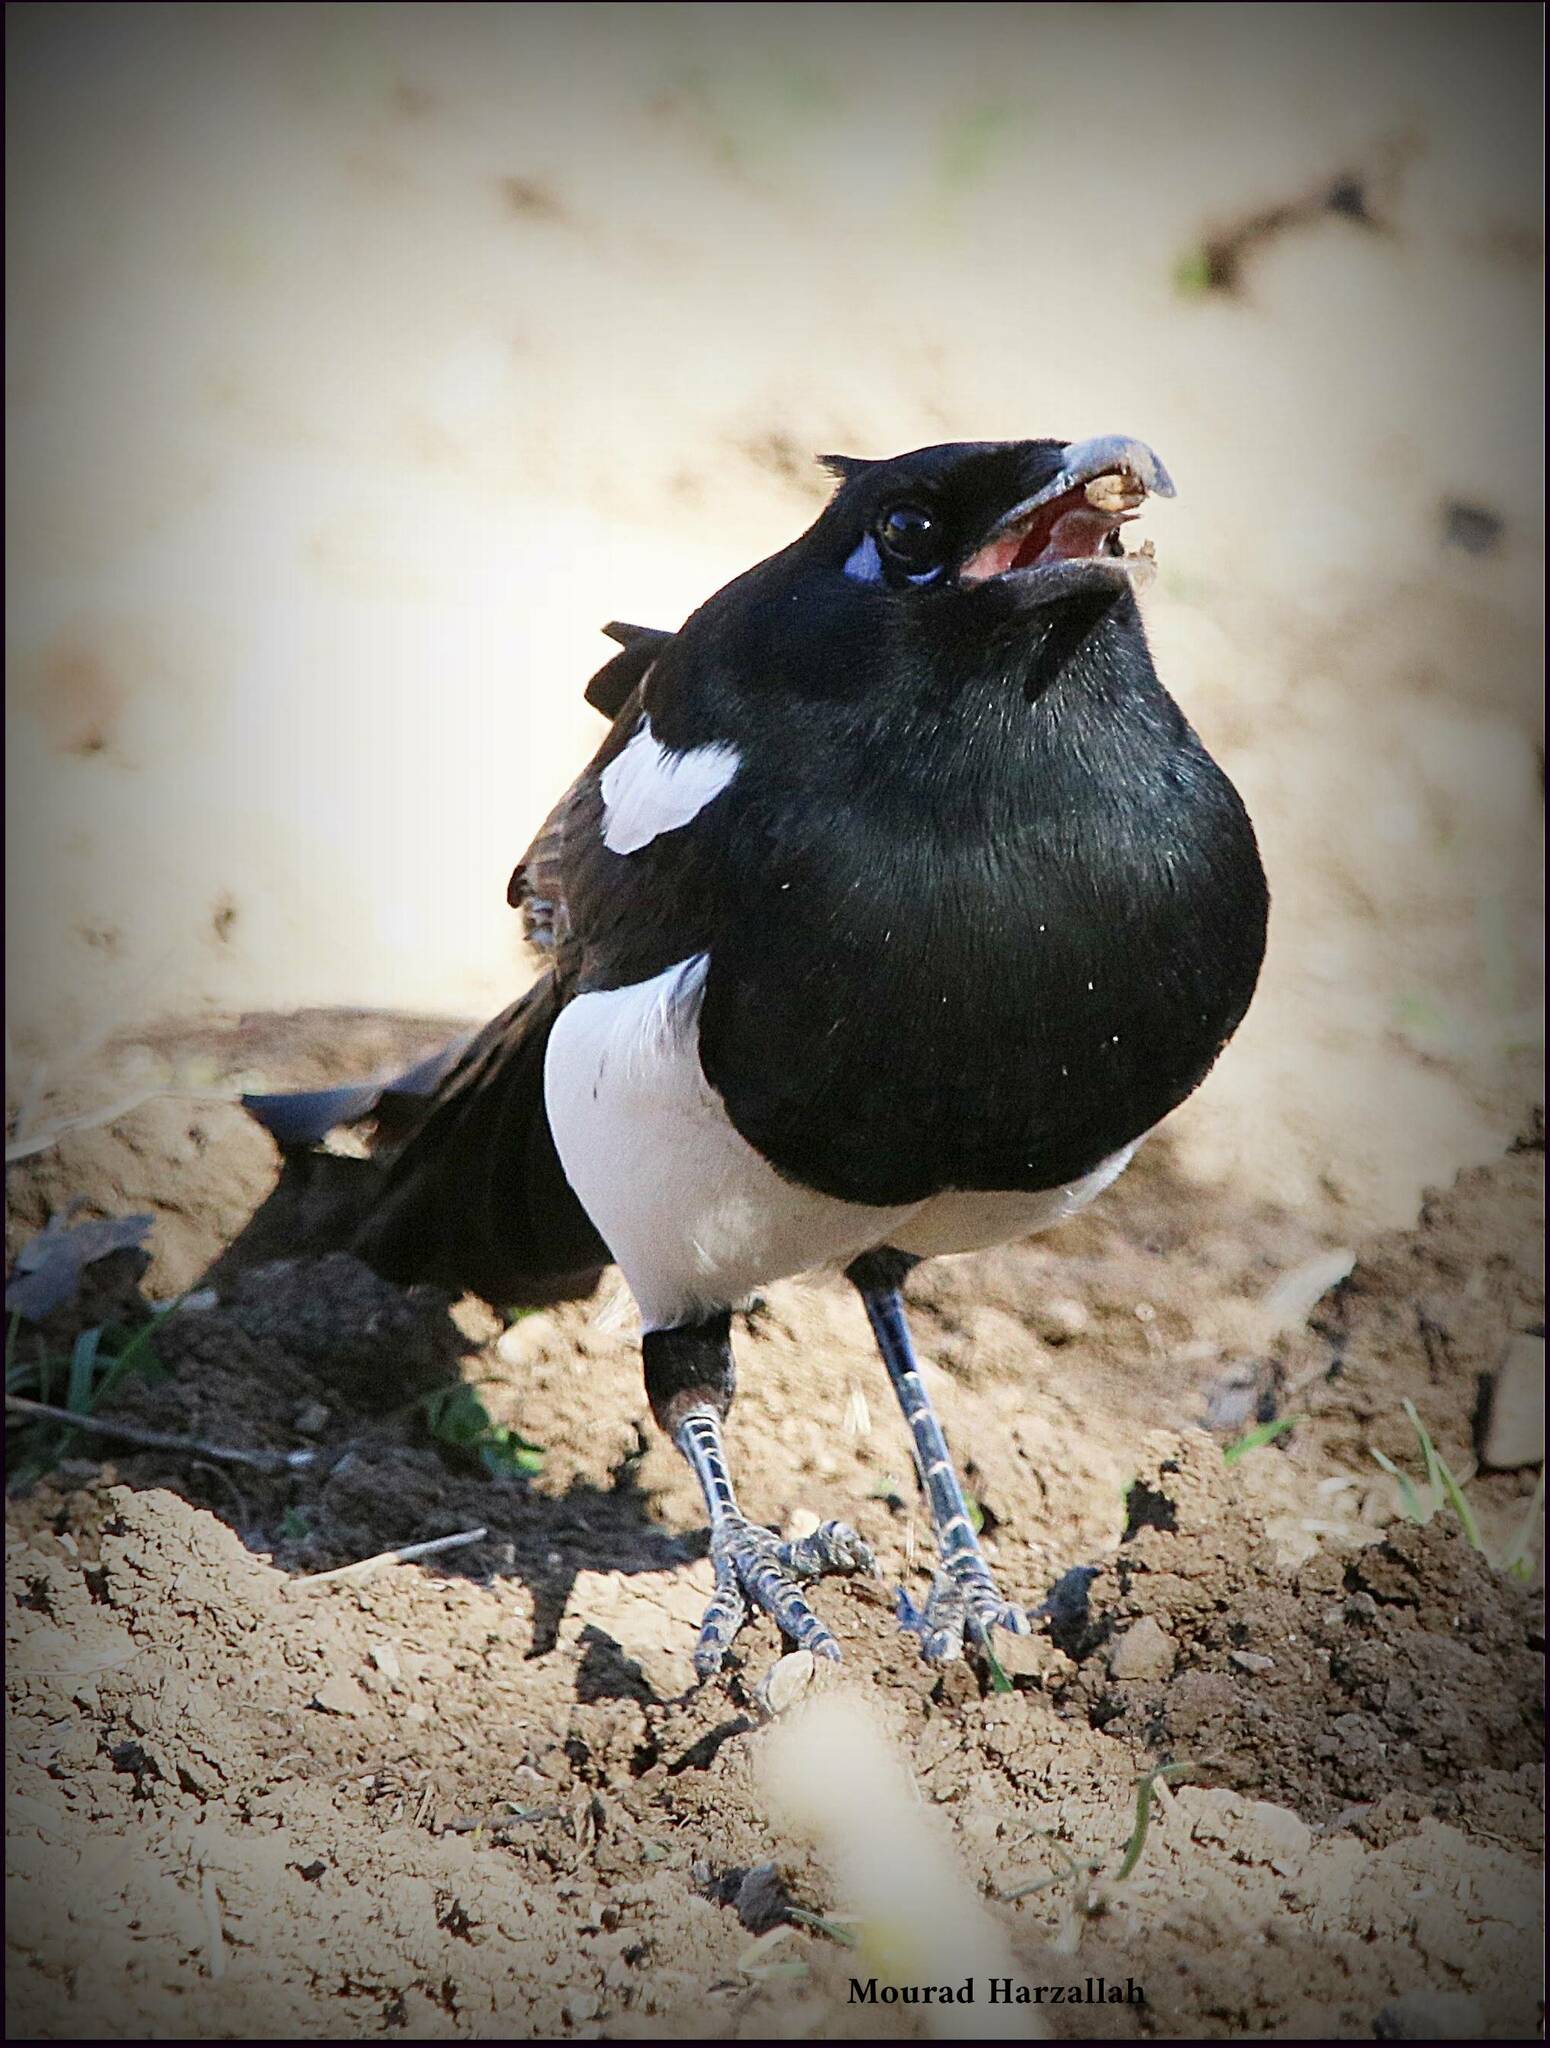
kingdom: Animalia
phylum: Chordata
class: Aves
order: Passeriformes
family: Corvidae
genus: Pica
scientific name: Pica mauritanica
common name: Maghreb magpie
